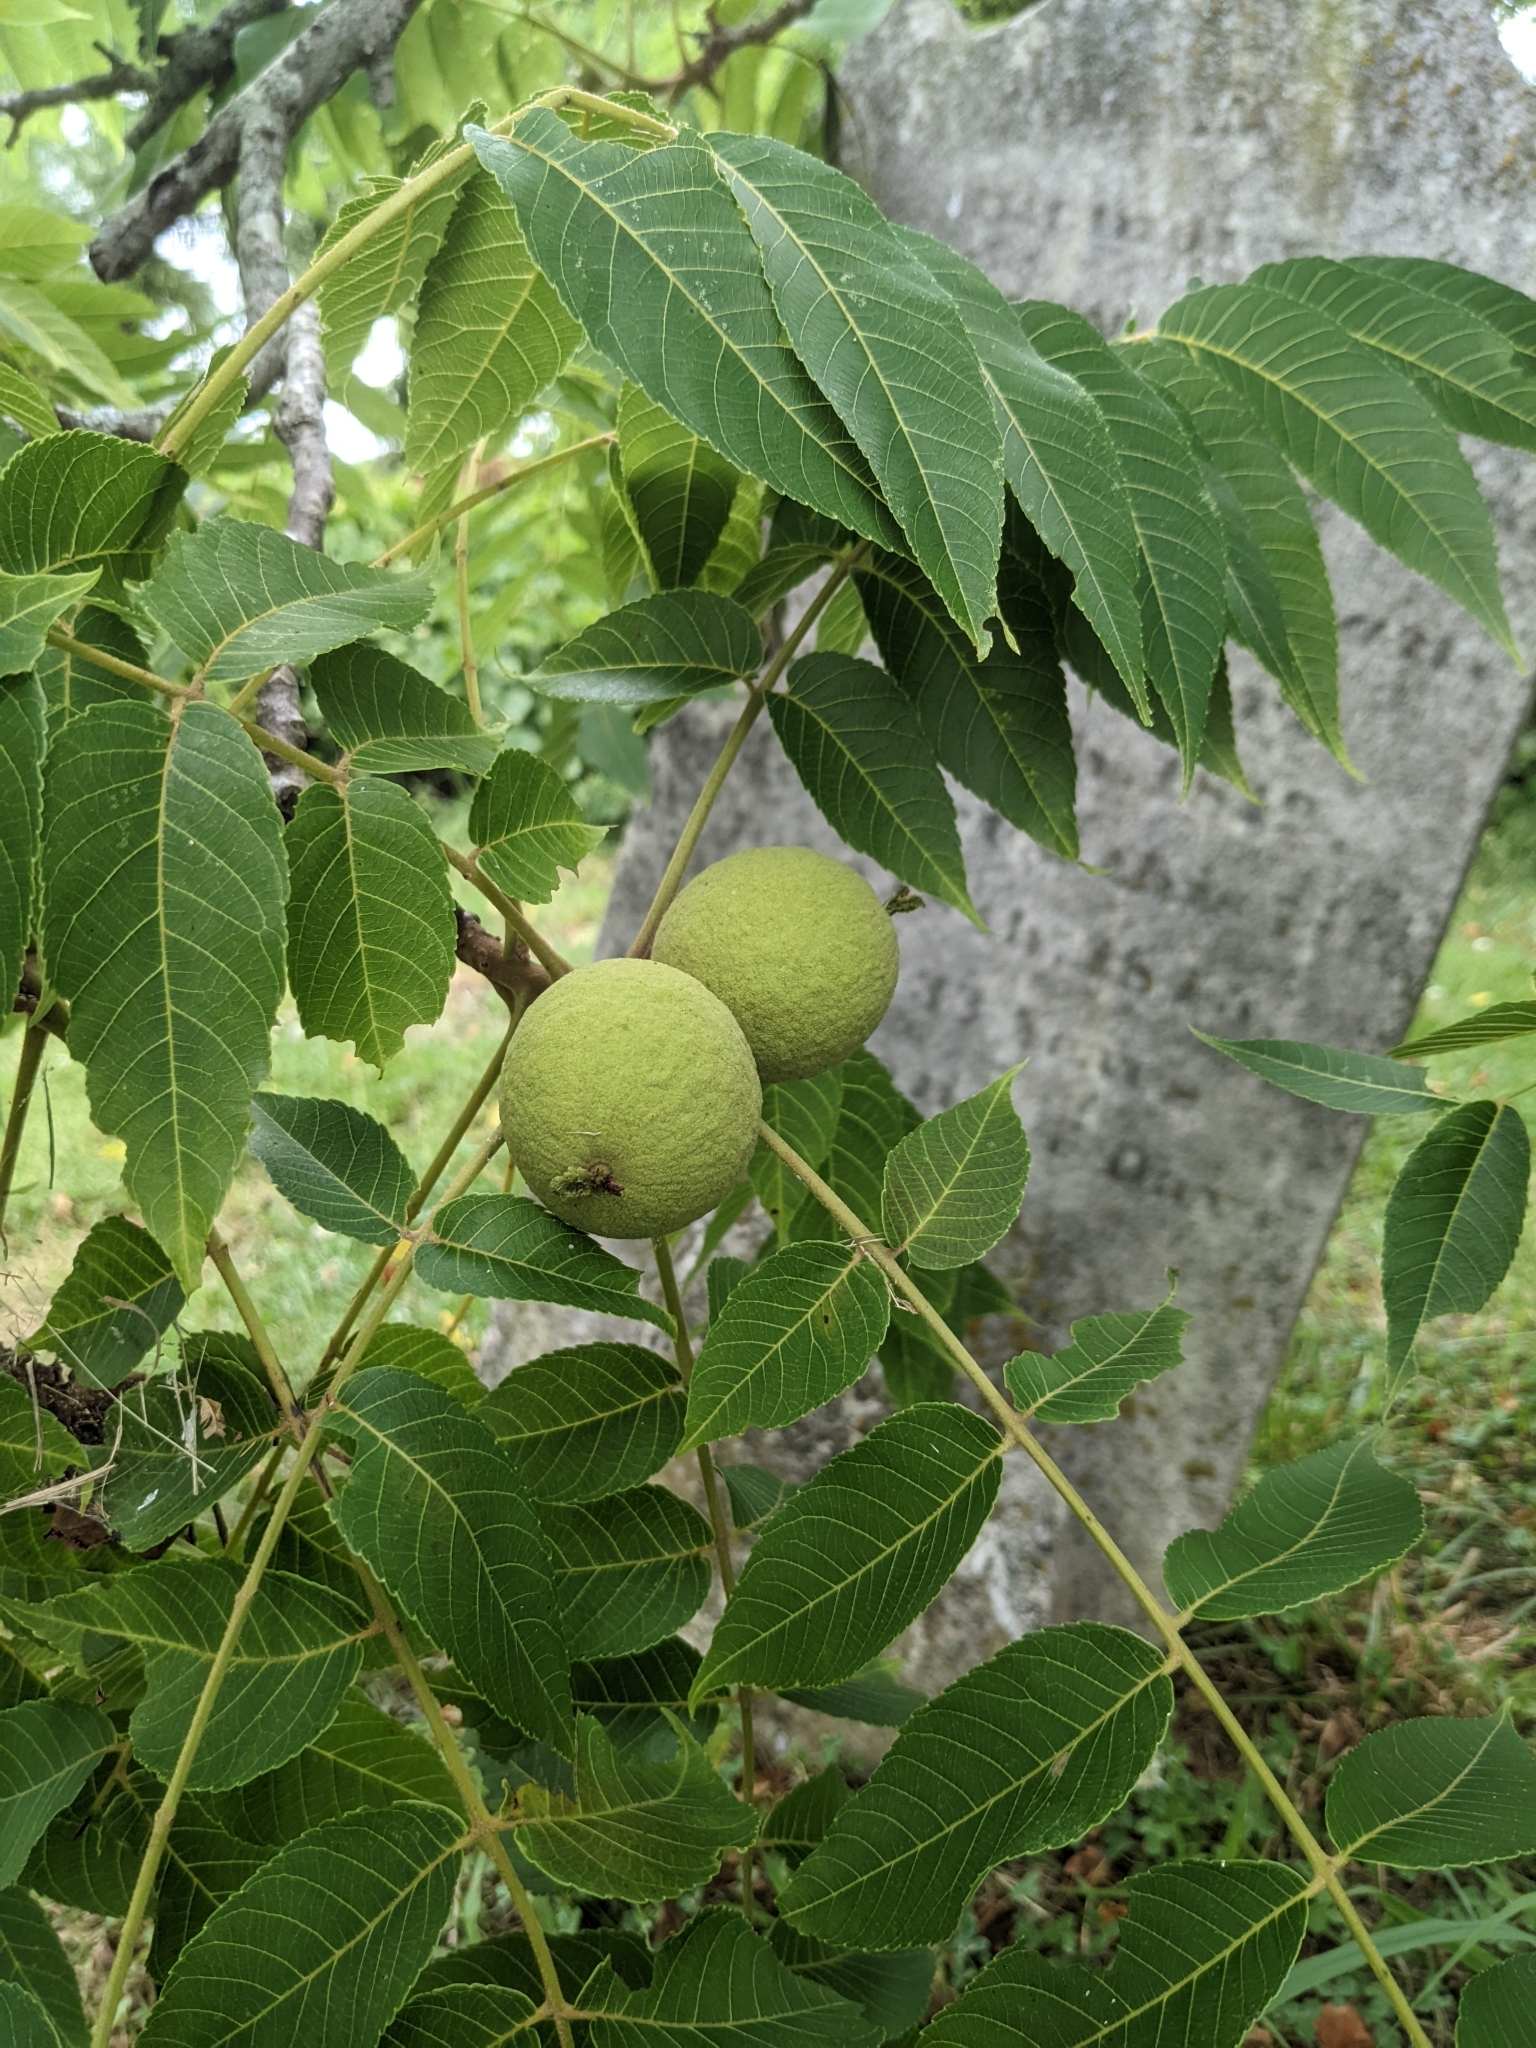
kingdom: Plantae
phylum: Tracheophyta
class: Magnoliopsida
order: Fagales
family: Juglandaceae
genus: Juglans
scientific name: Juglans nigra
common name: Black walnut
